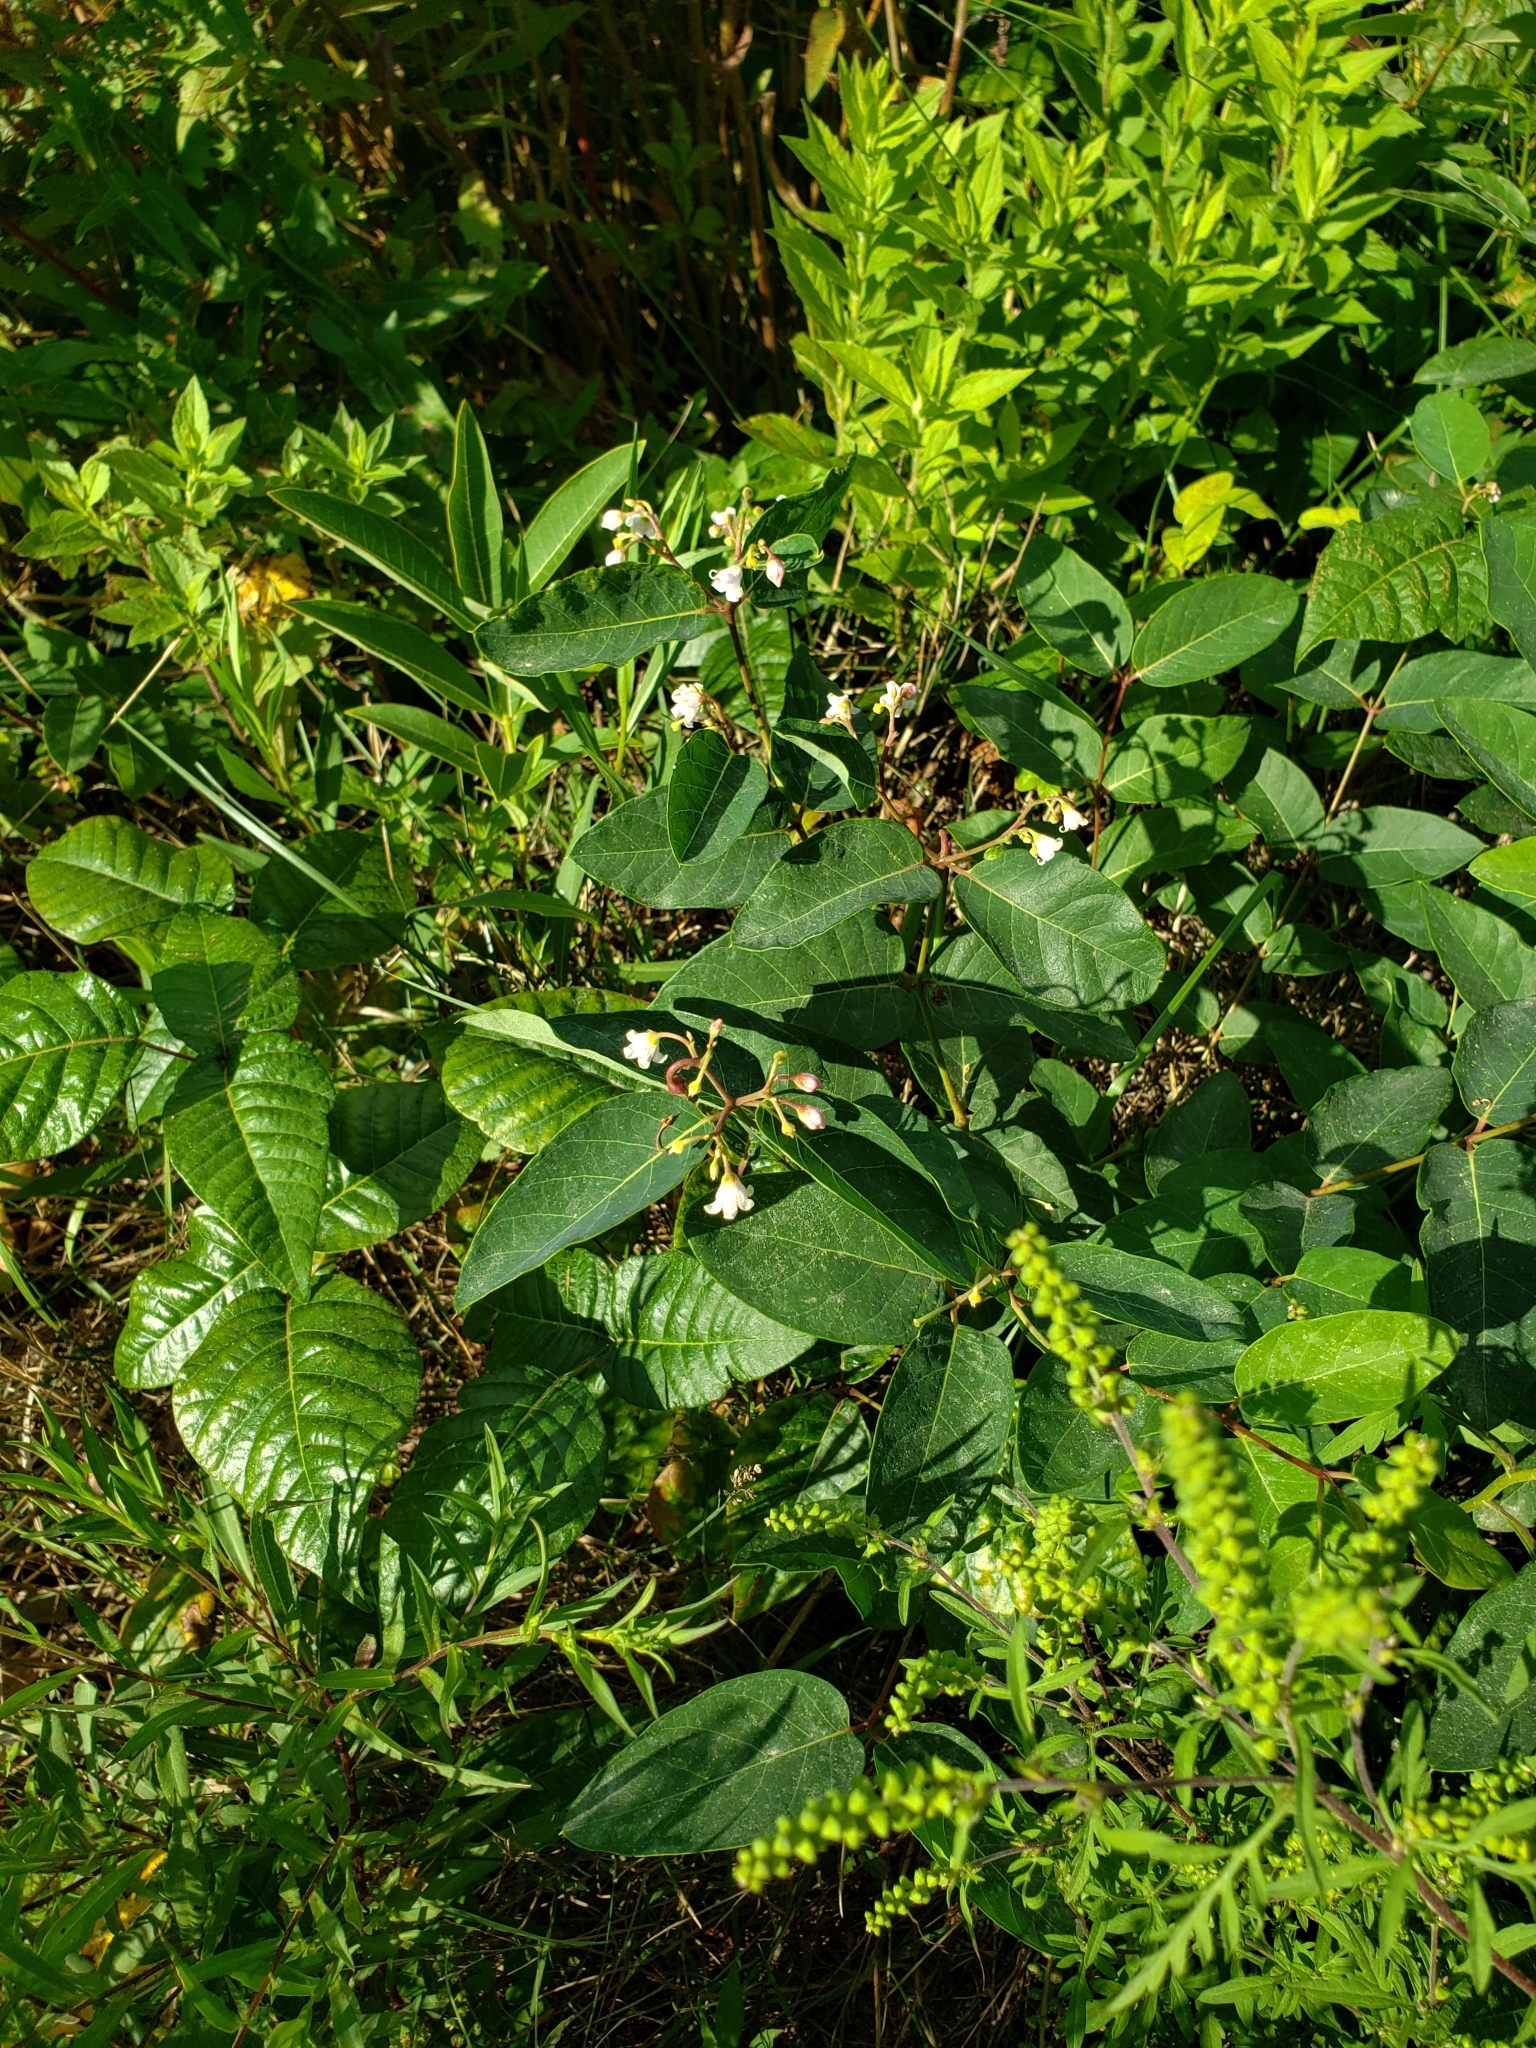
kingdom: Plantae
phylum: Tracheophyta
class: Magnoliopsida
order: Gentianales
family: Apocynaceae
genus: Apocynum
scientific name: Apocynum androsaemifolium
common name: Spreading dogbane
